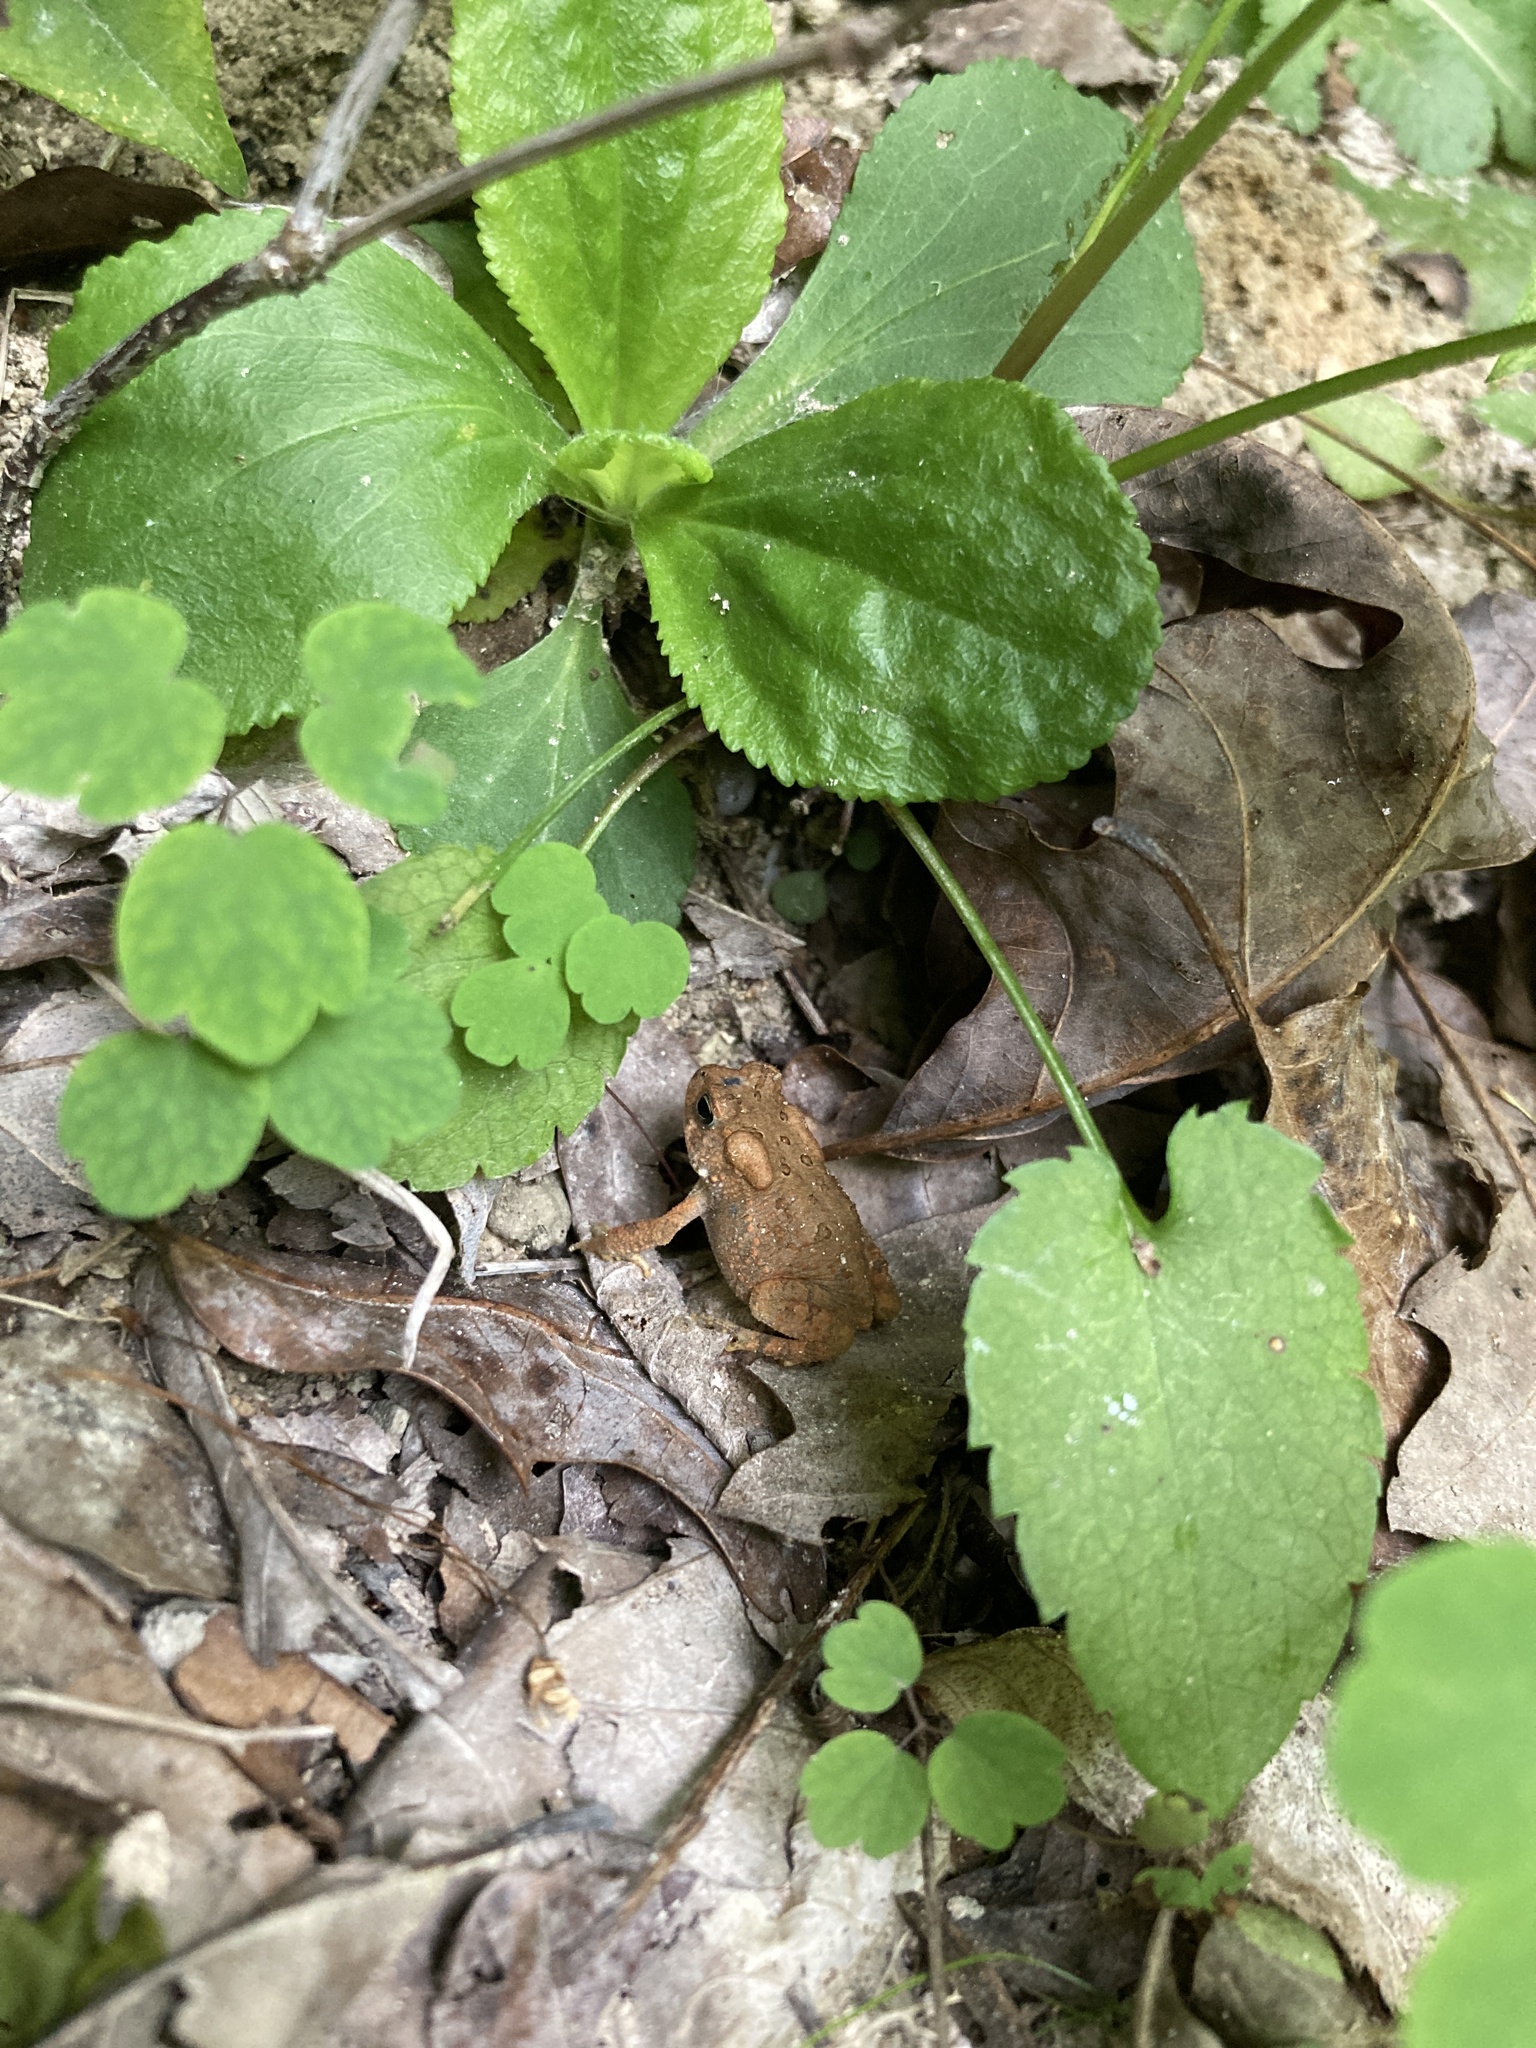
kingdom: Animalia
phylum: Chordata
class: Amphibia
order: Anura
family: Bufonidae
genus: Anaxyrus
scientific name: Anaxyrus americanus
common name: American toad
